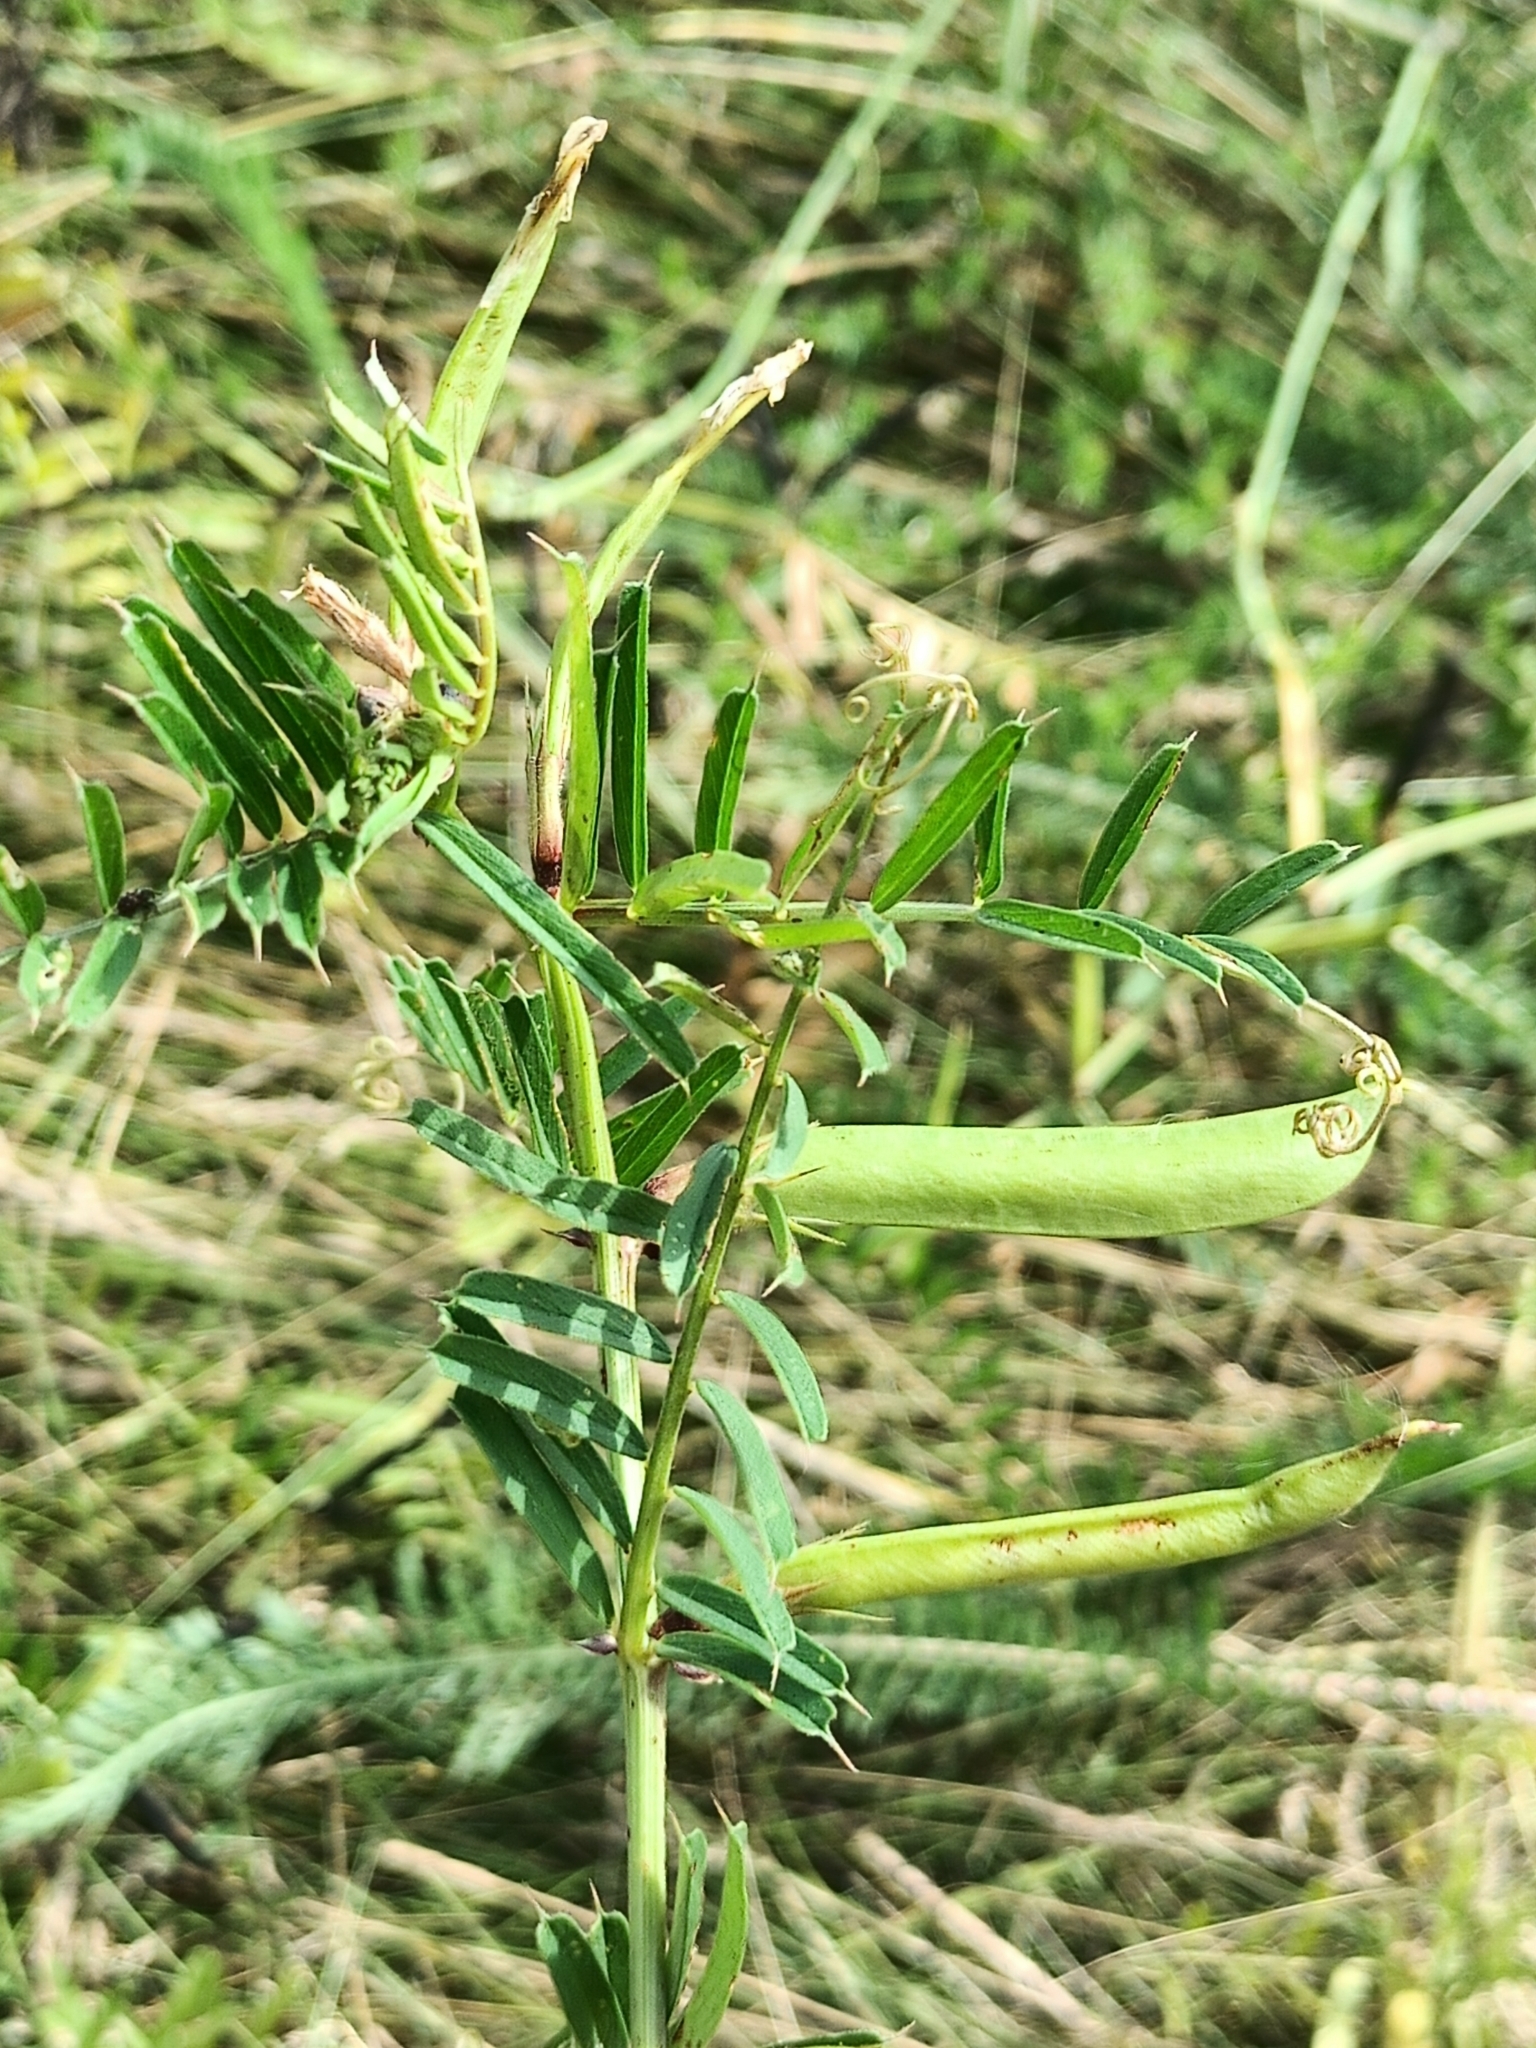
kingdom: Plantae
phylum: Tracheophyta
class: Magnoliopsida
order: Fabales
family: Fabaceae
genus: Vicia
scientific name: Vicia sativa
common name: Garden vetch
